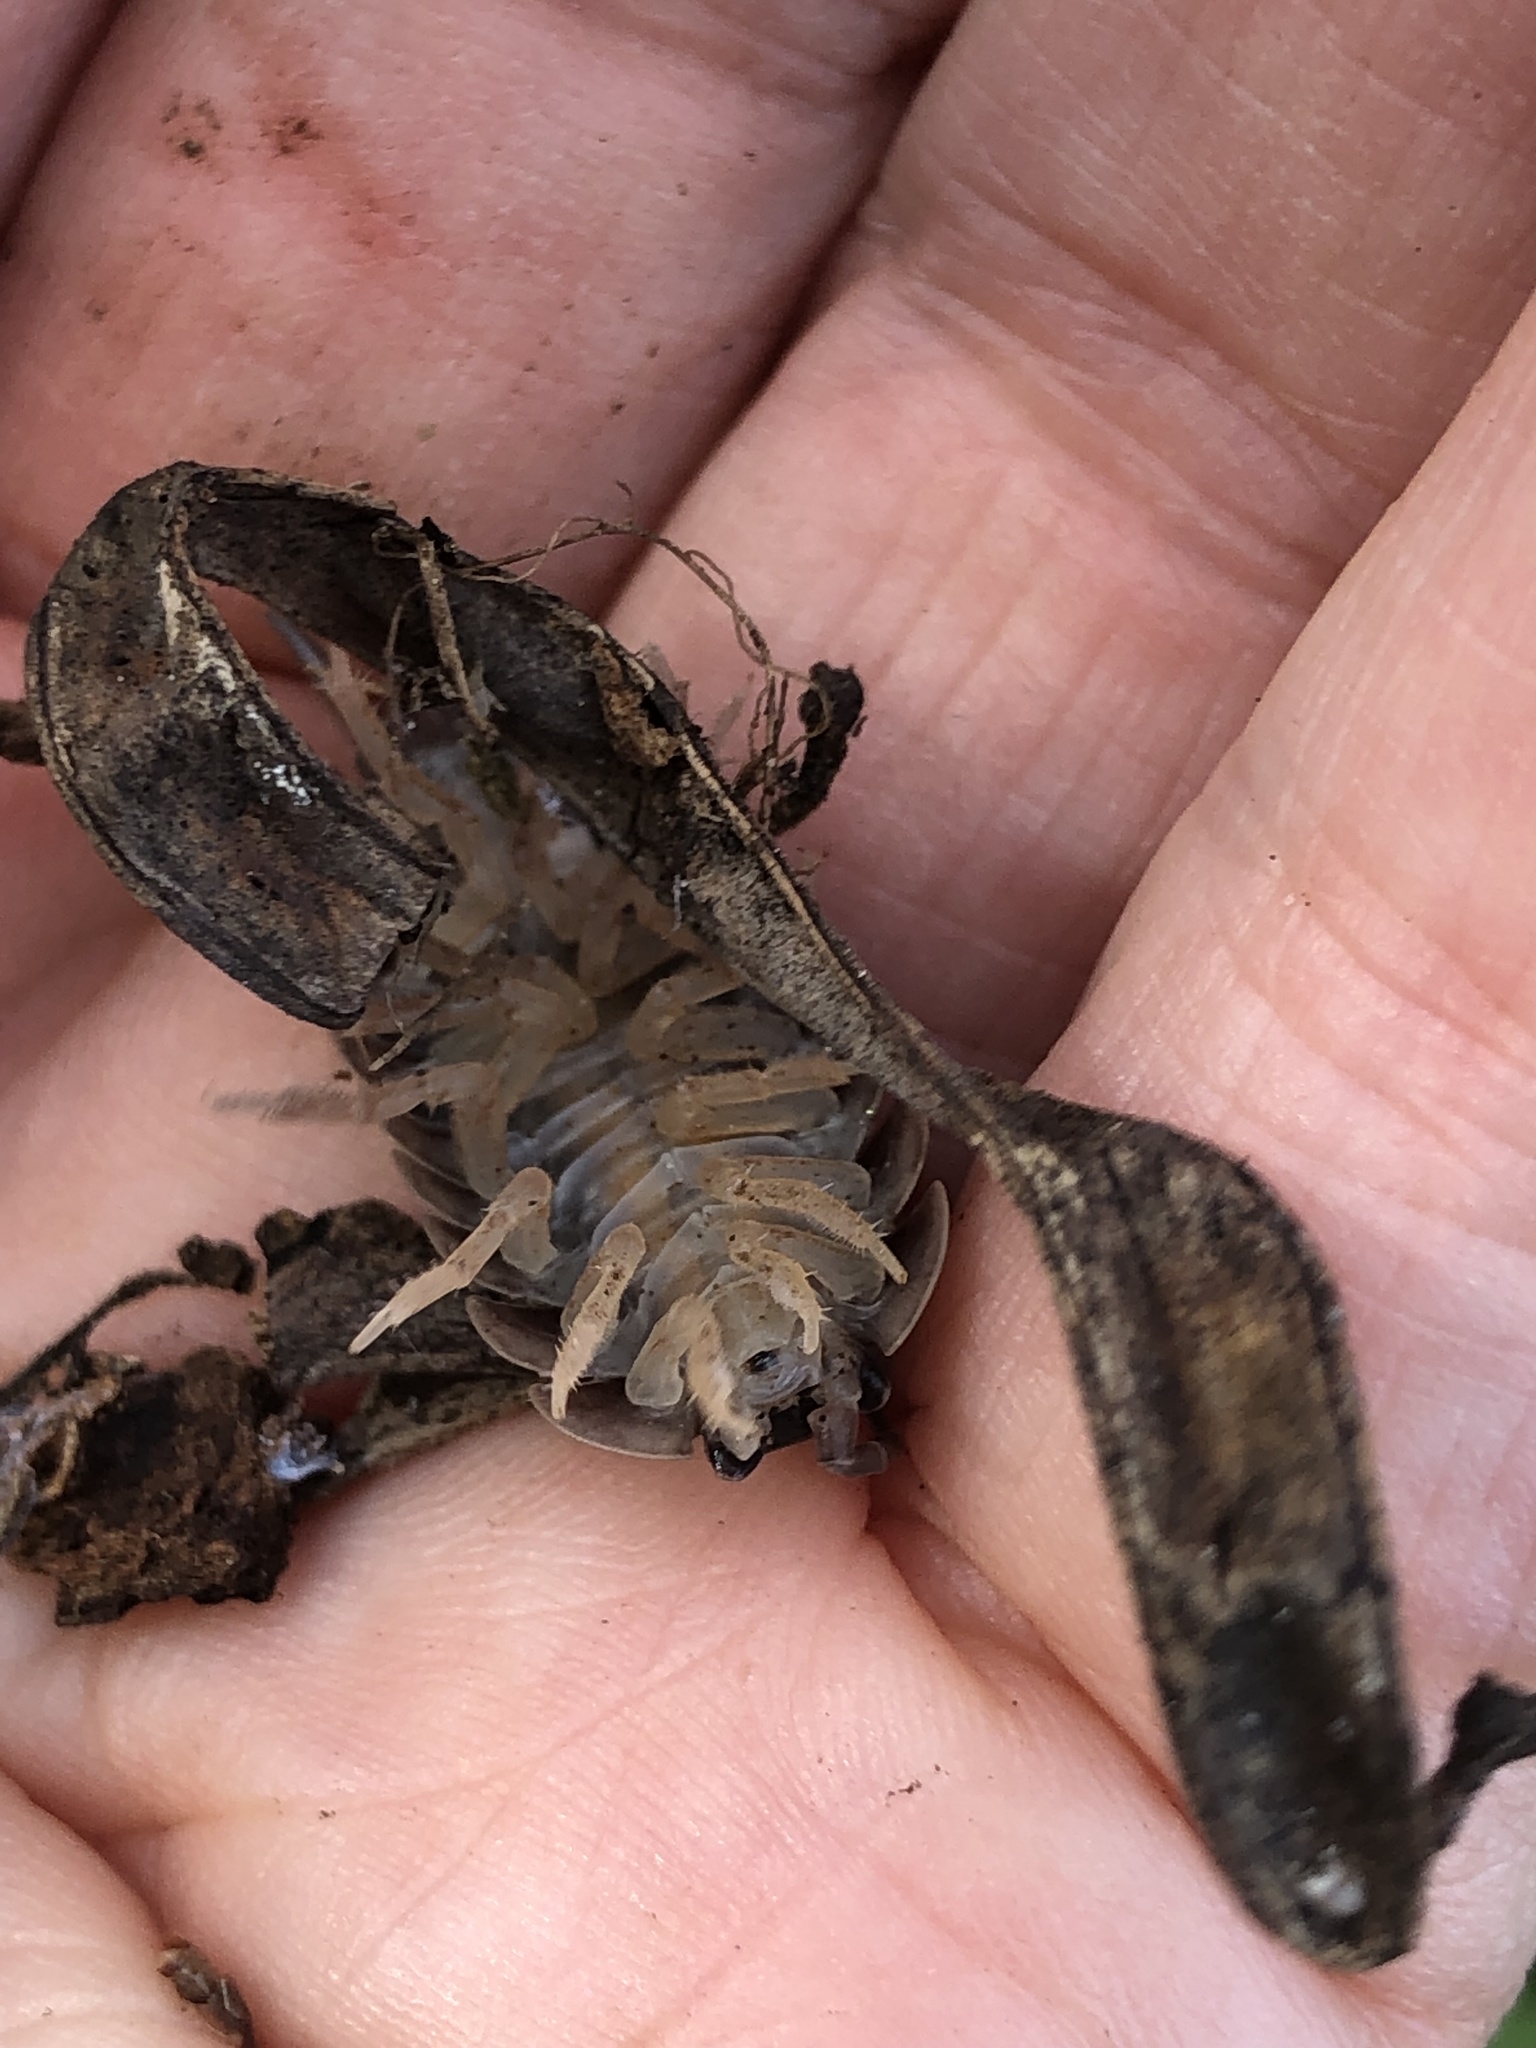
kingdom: Animalia
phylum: Arthropoda
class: Malacostraca
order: Isopoda
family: Porcellionidae
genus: Porcellio
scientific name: Porcellio laevis
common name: Swift woodlouse
